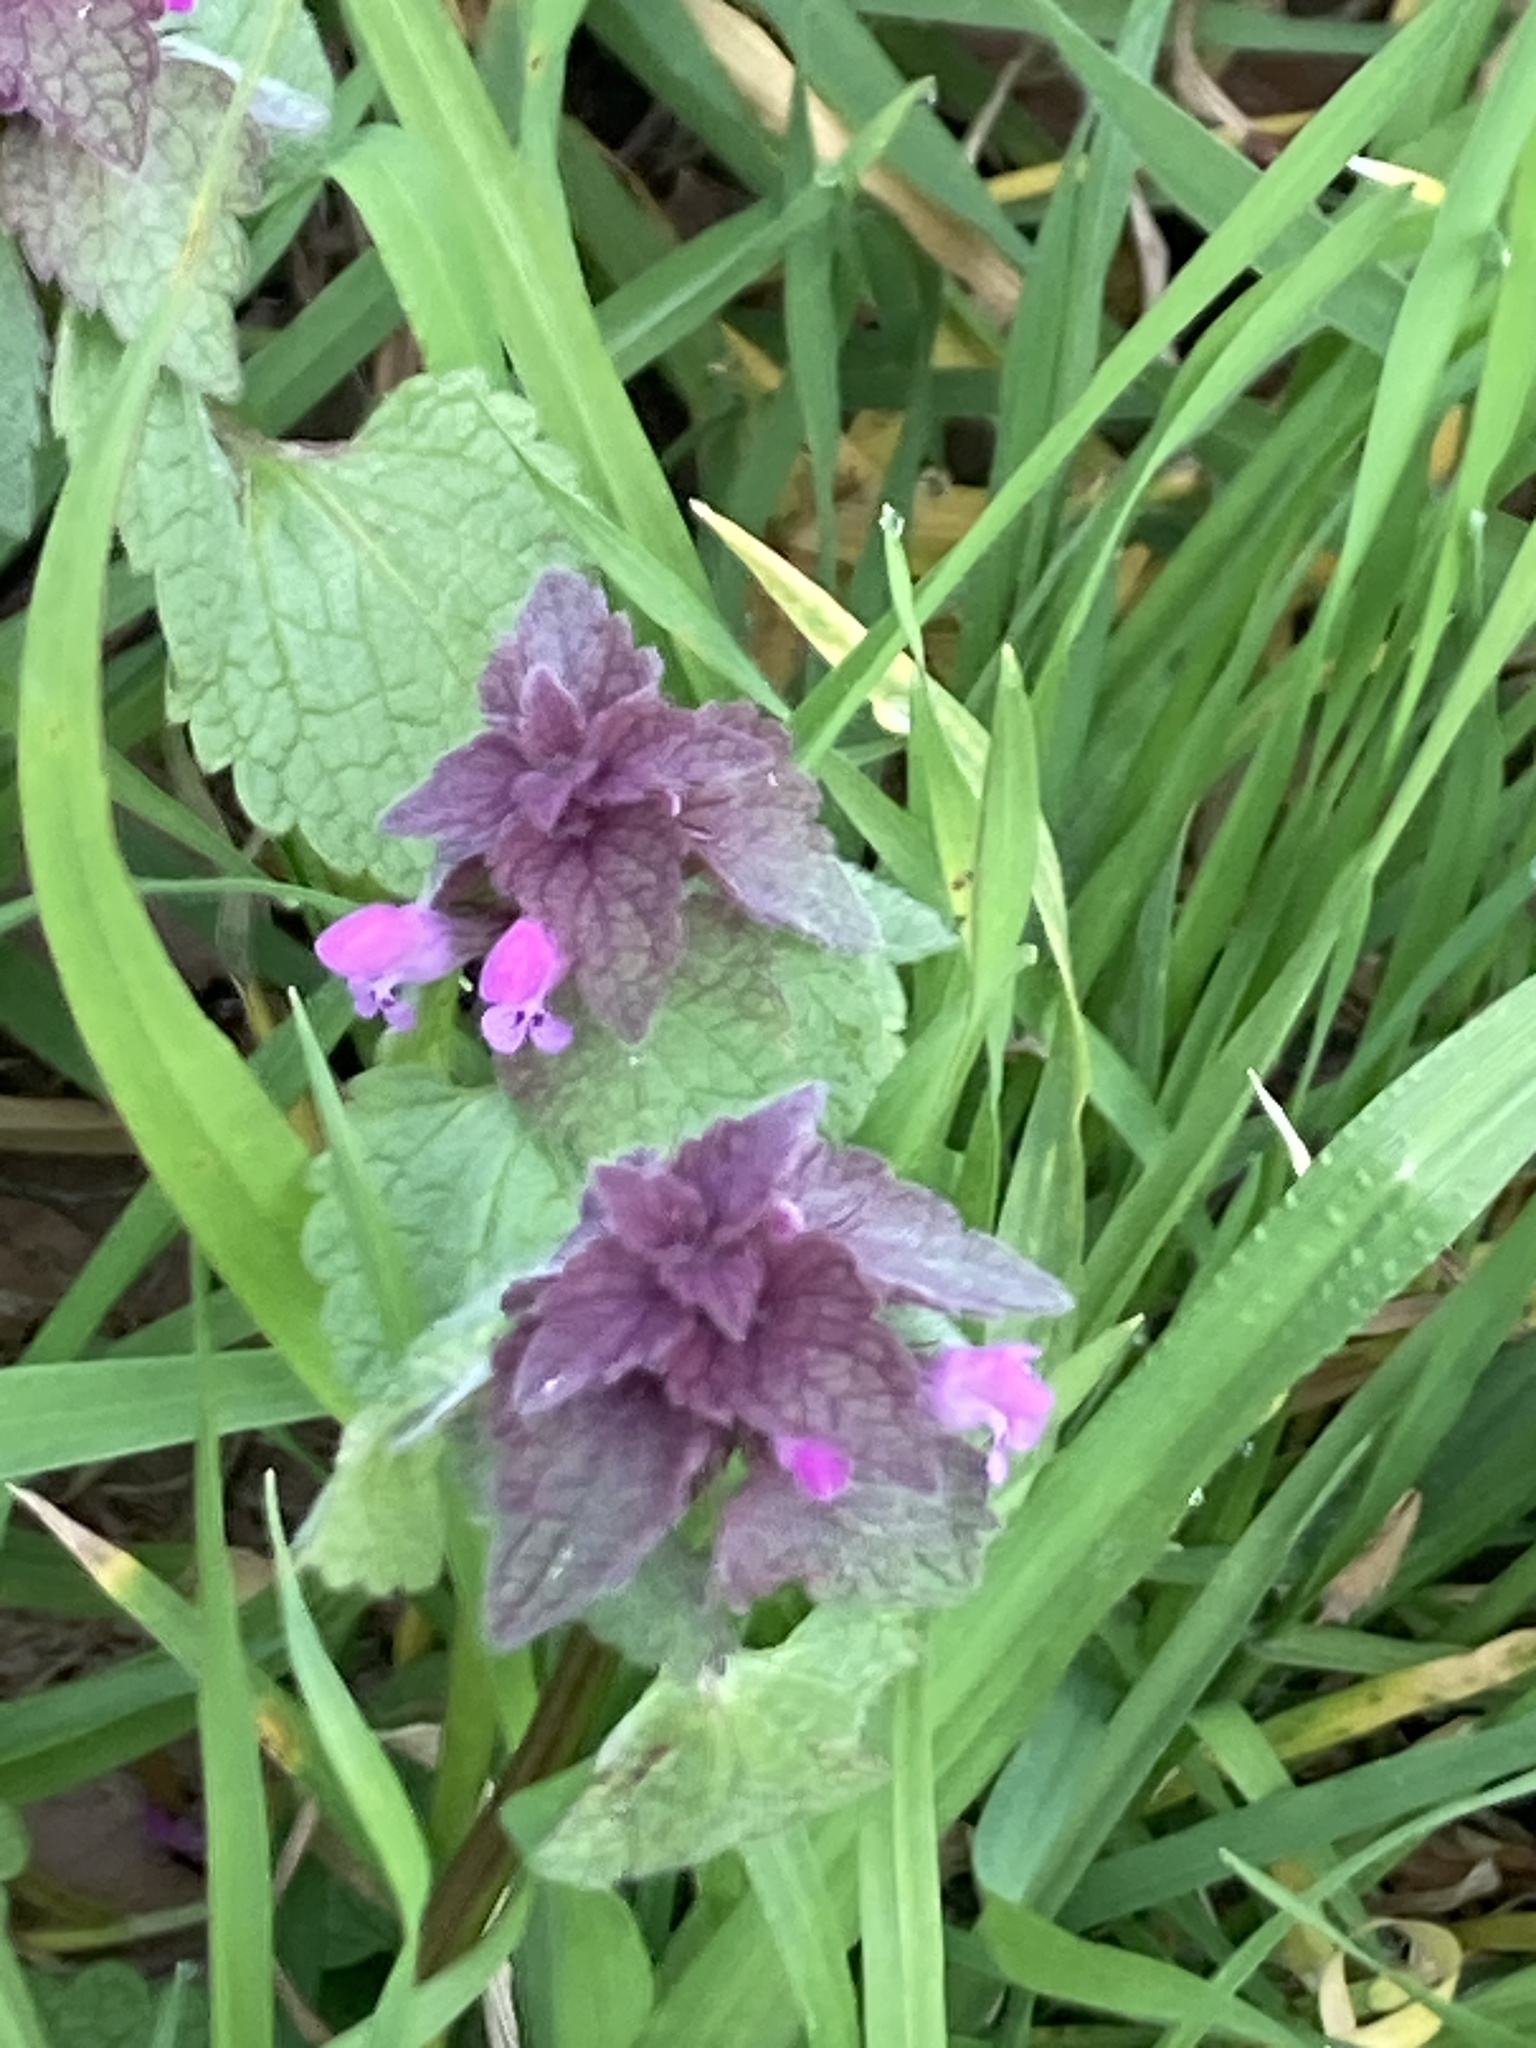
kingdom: Plantae
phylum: Tracheophyta
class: Magnoliopsida
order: Lamiales
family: Lamiaceae
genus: Lamium
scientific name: Lamium purpureum
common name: Red dead-nettle
